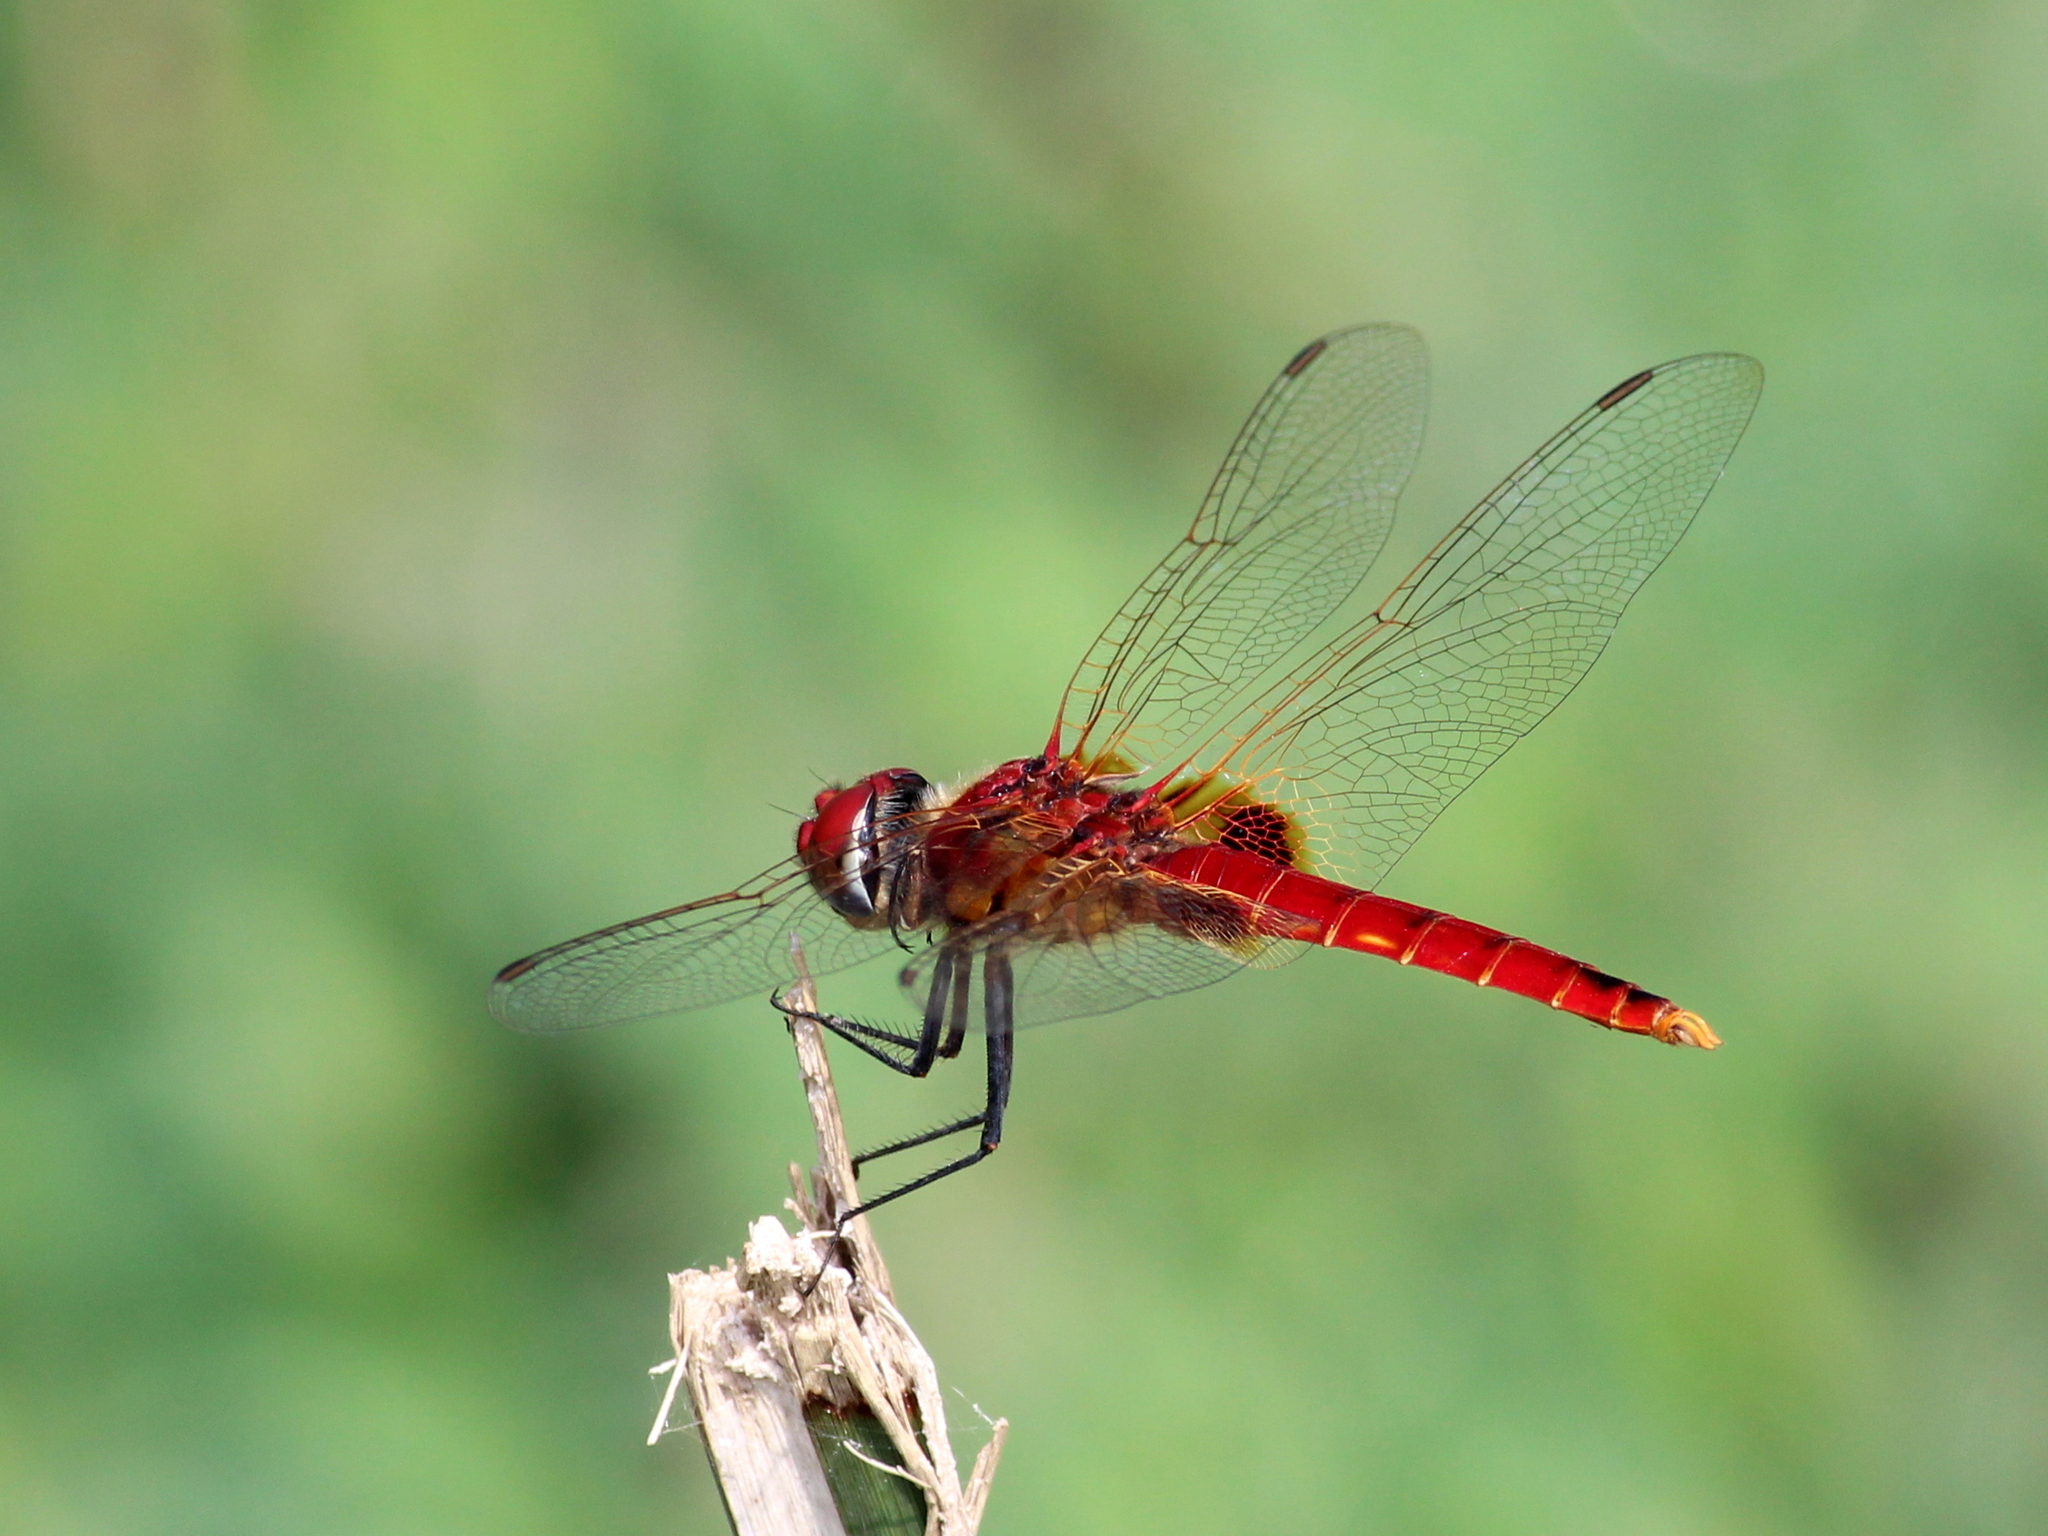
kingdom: Animalia
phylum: Arthropoda
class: Insecta
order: Odonata
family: Libellulidae
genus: Urothemis
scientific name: Urothemis signata
